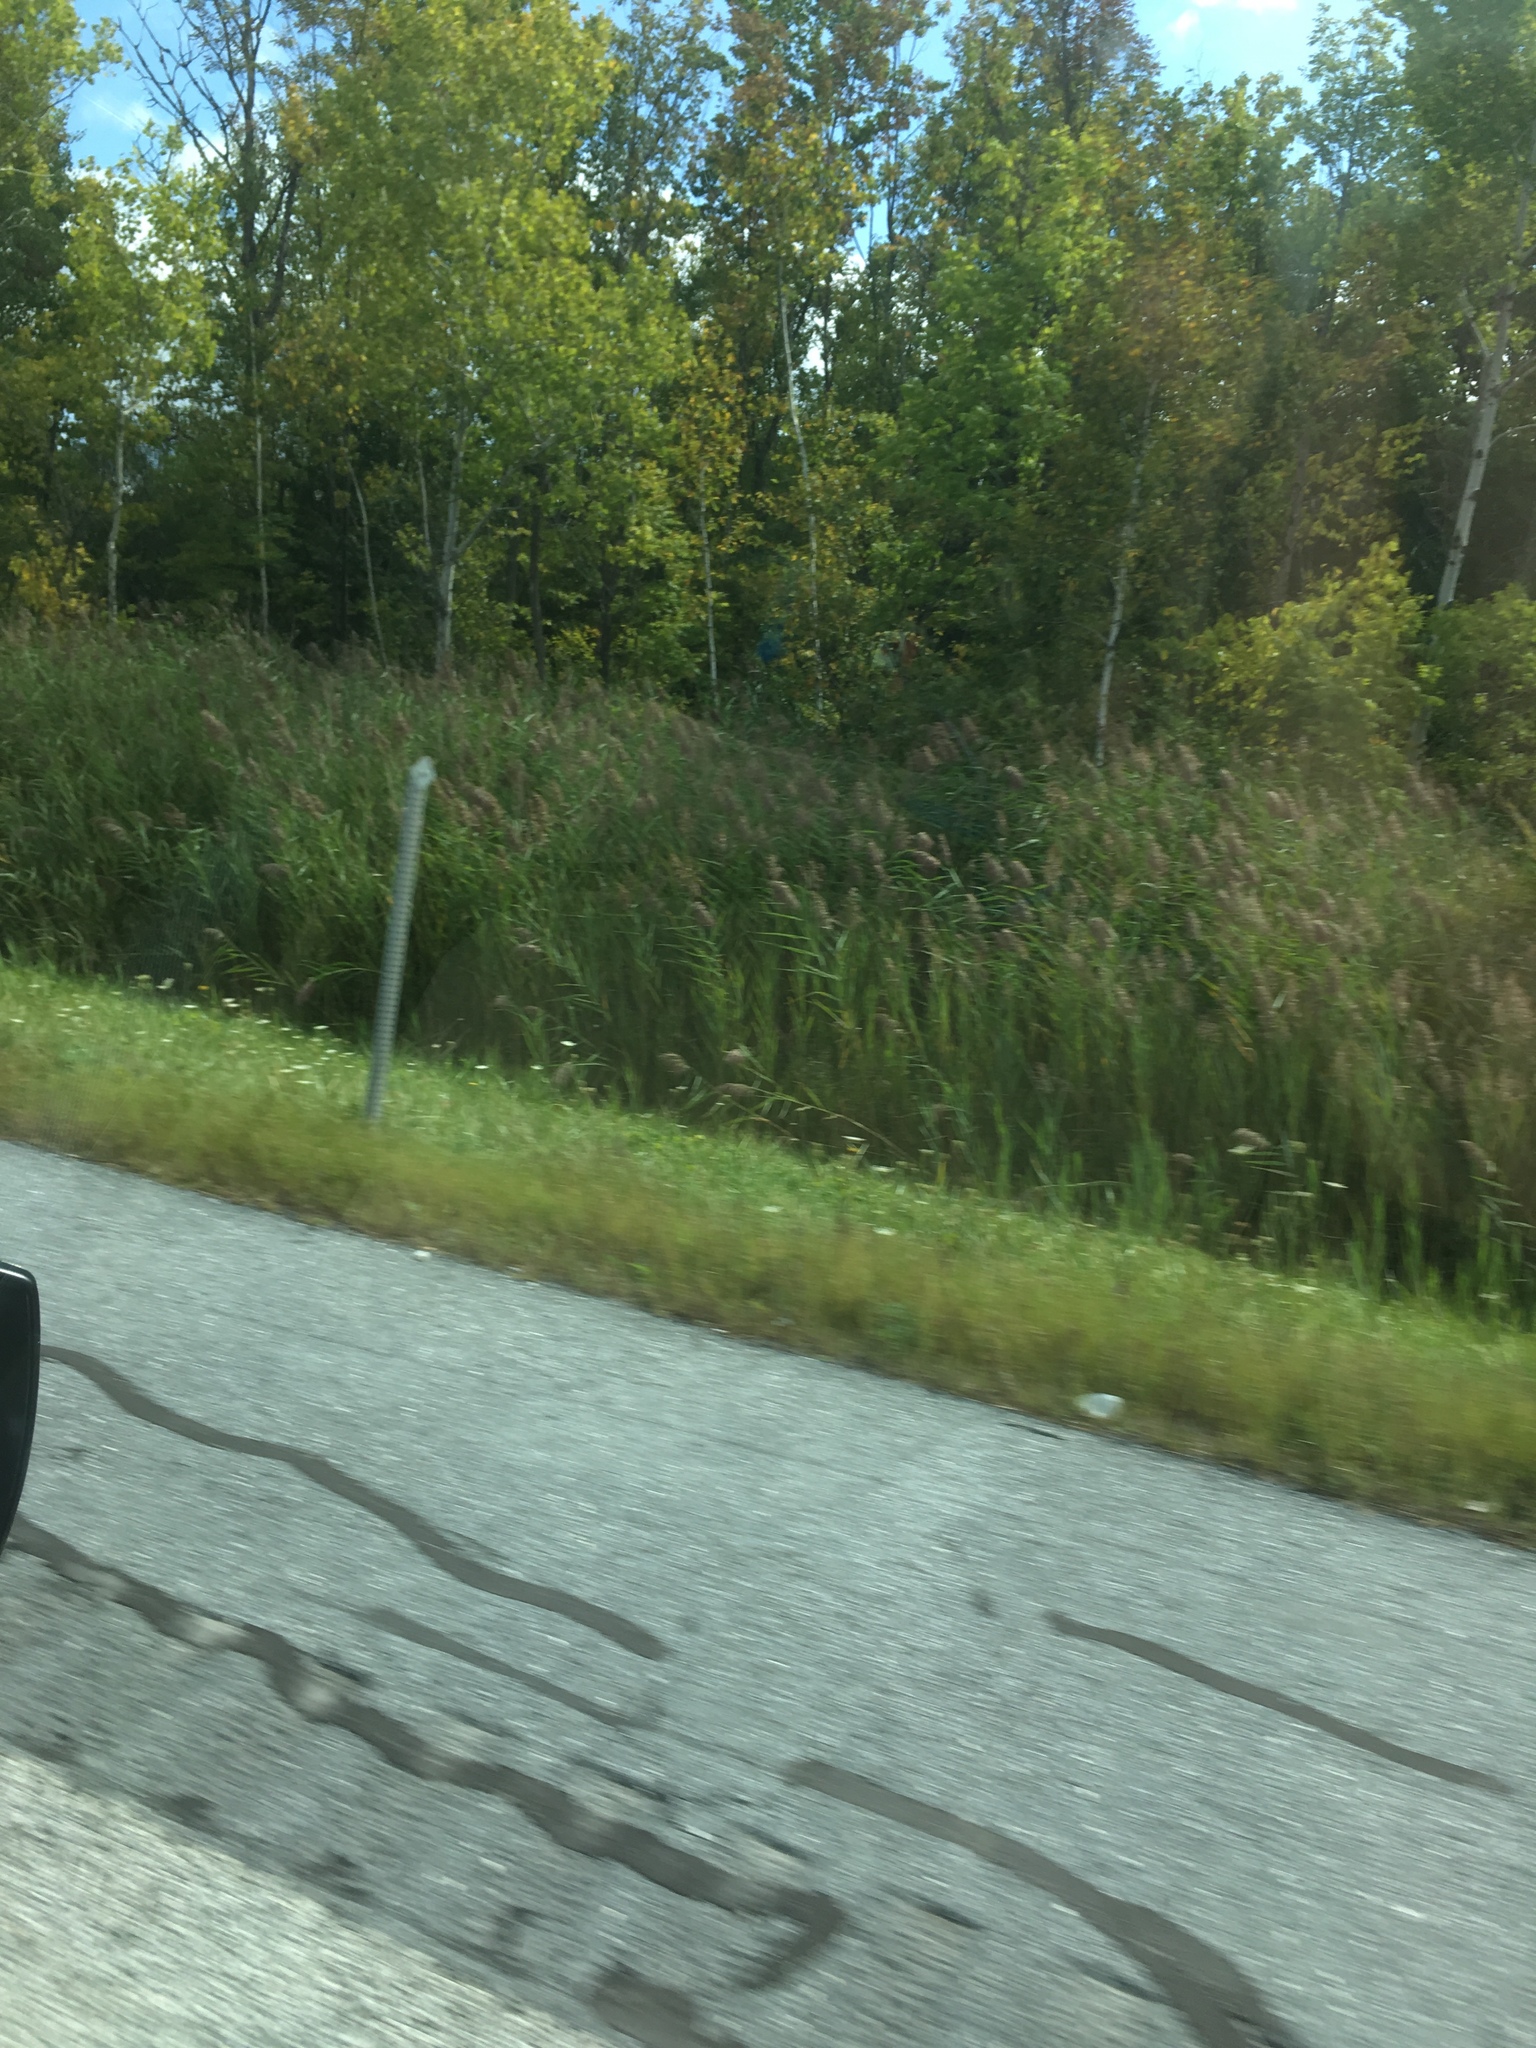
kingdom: Plantae
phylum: Tracheophyta
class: Liliopsida
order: Poales
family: Poaceae
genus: Phragmites
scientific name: Phragmites australis
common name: Common reed
